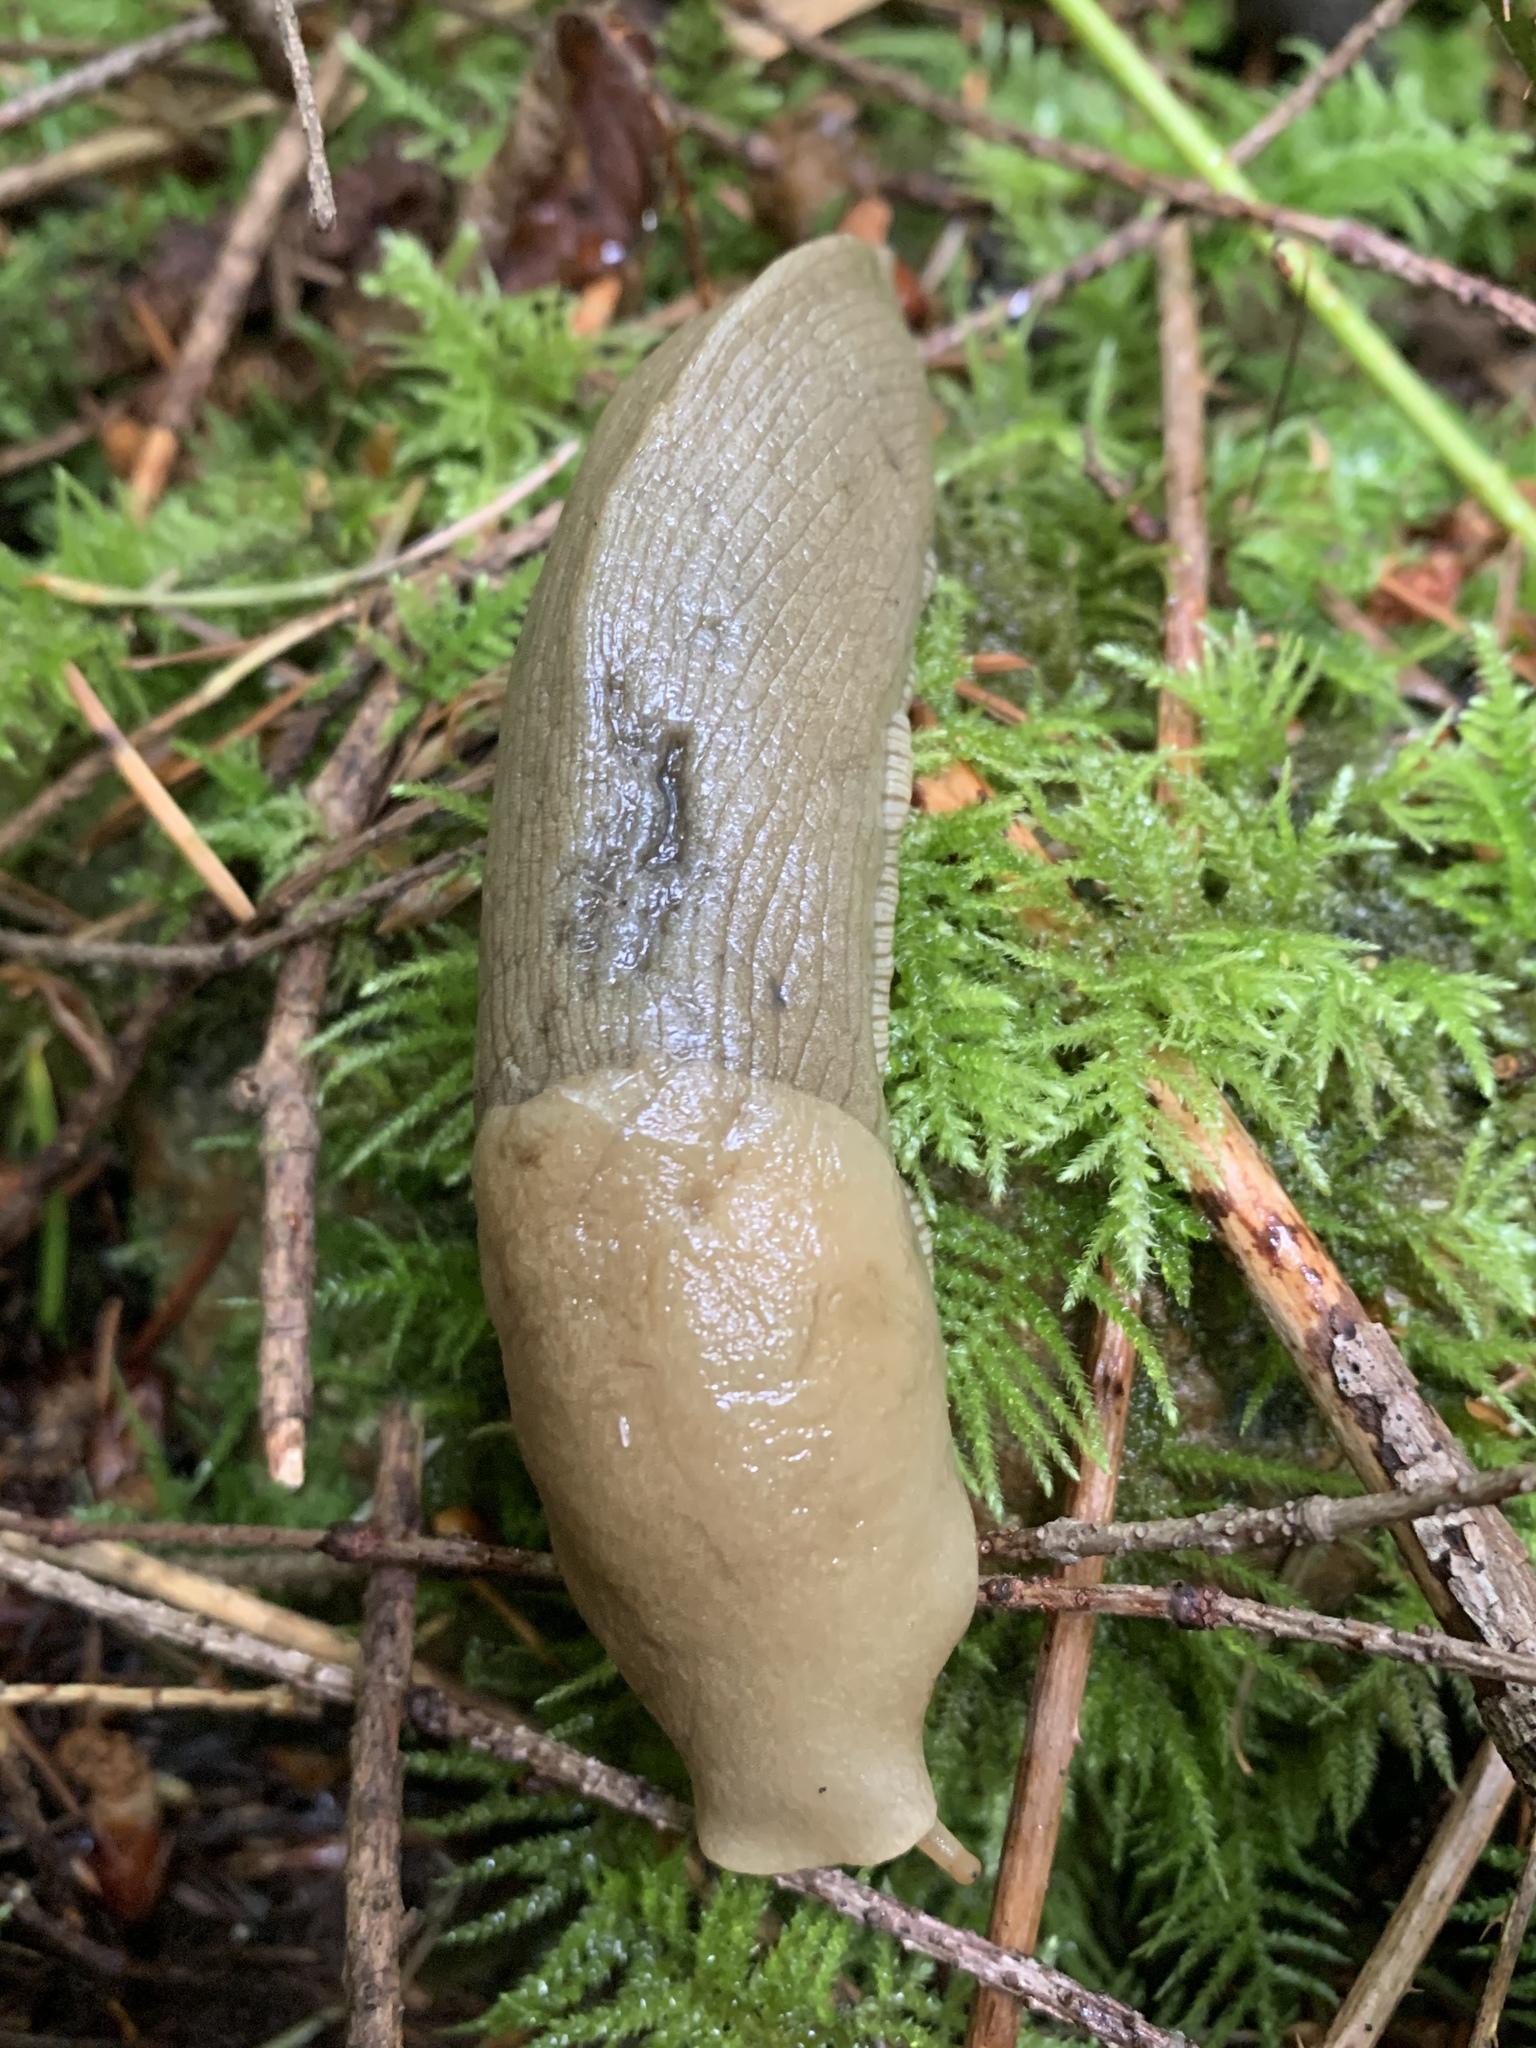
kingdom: Animalia
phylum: Mollusca
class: Gastropoda
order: Stylommatophora
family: Ariolimacidae
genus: Ariolimax
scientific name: Ariolimax columbianus
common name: Pacific banana slug
